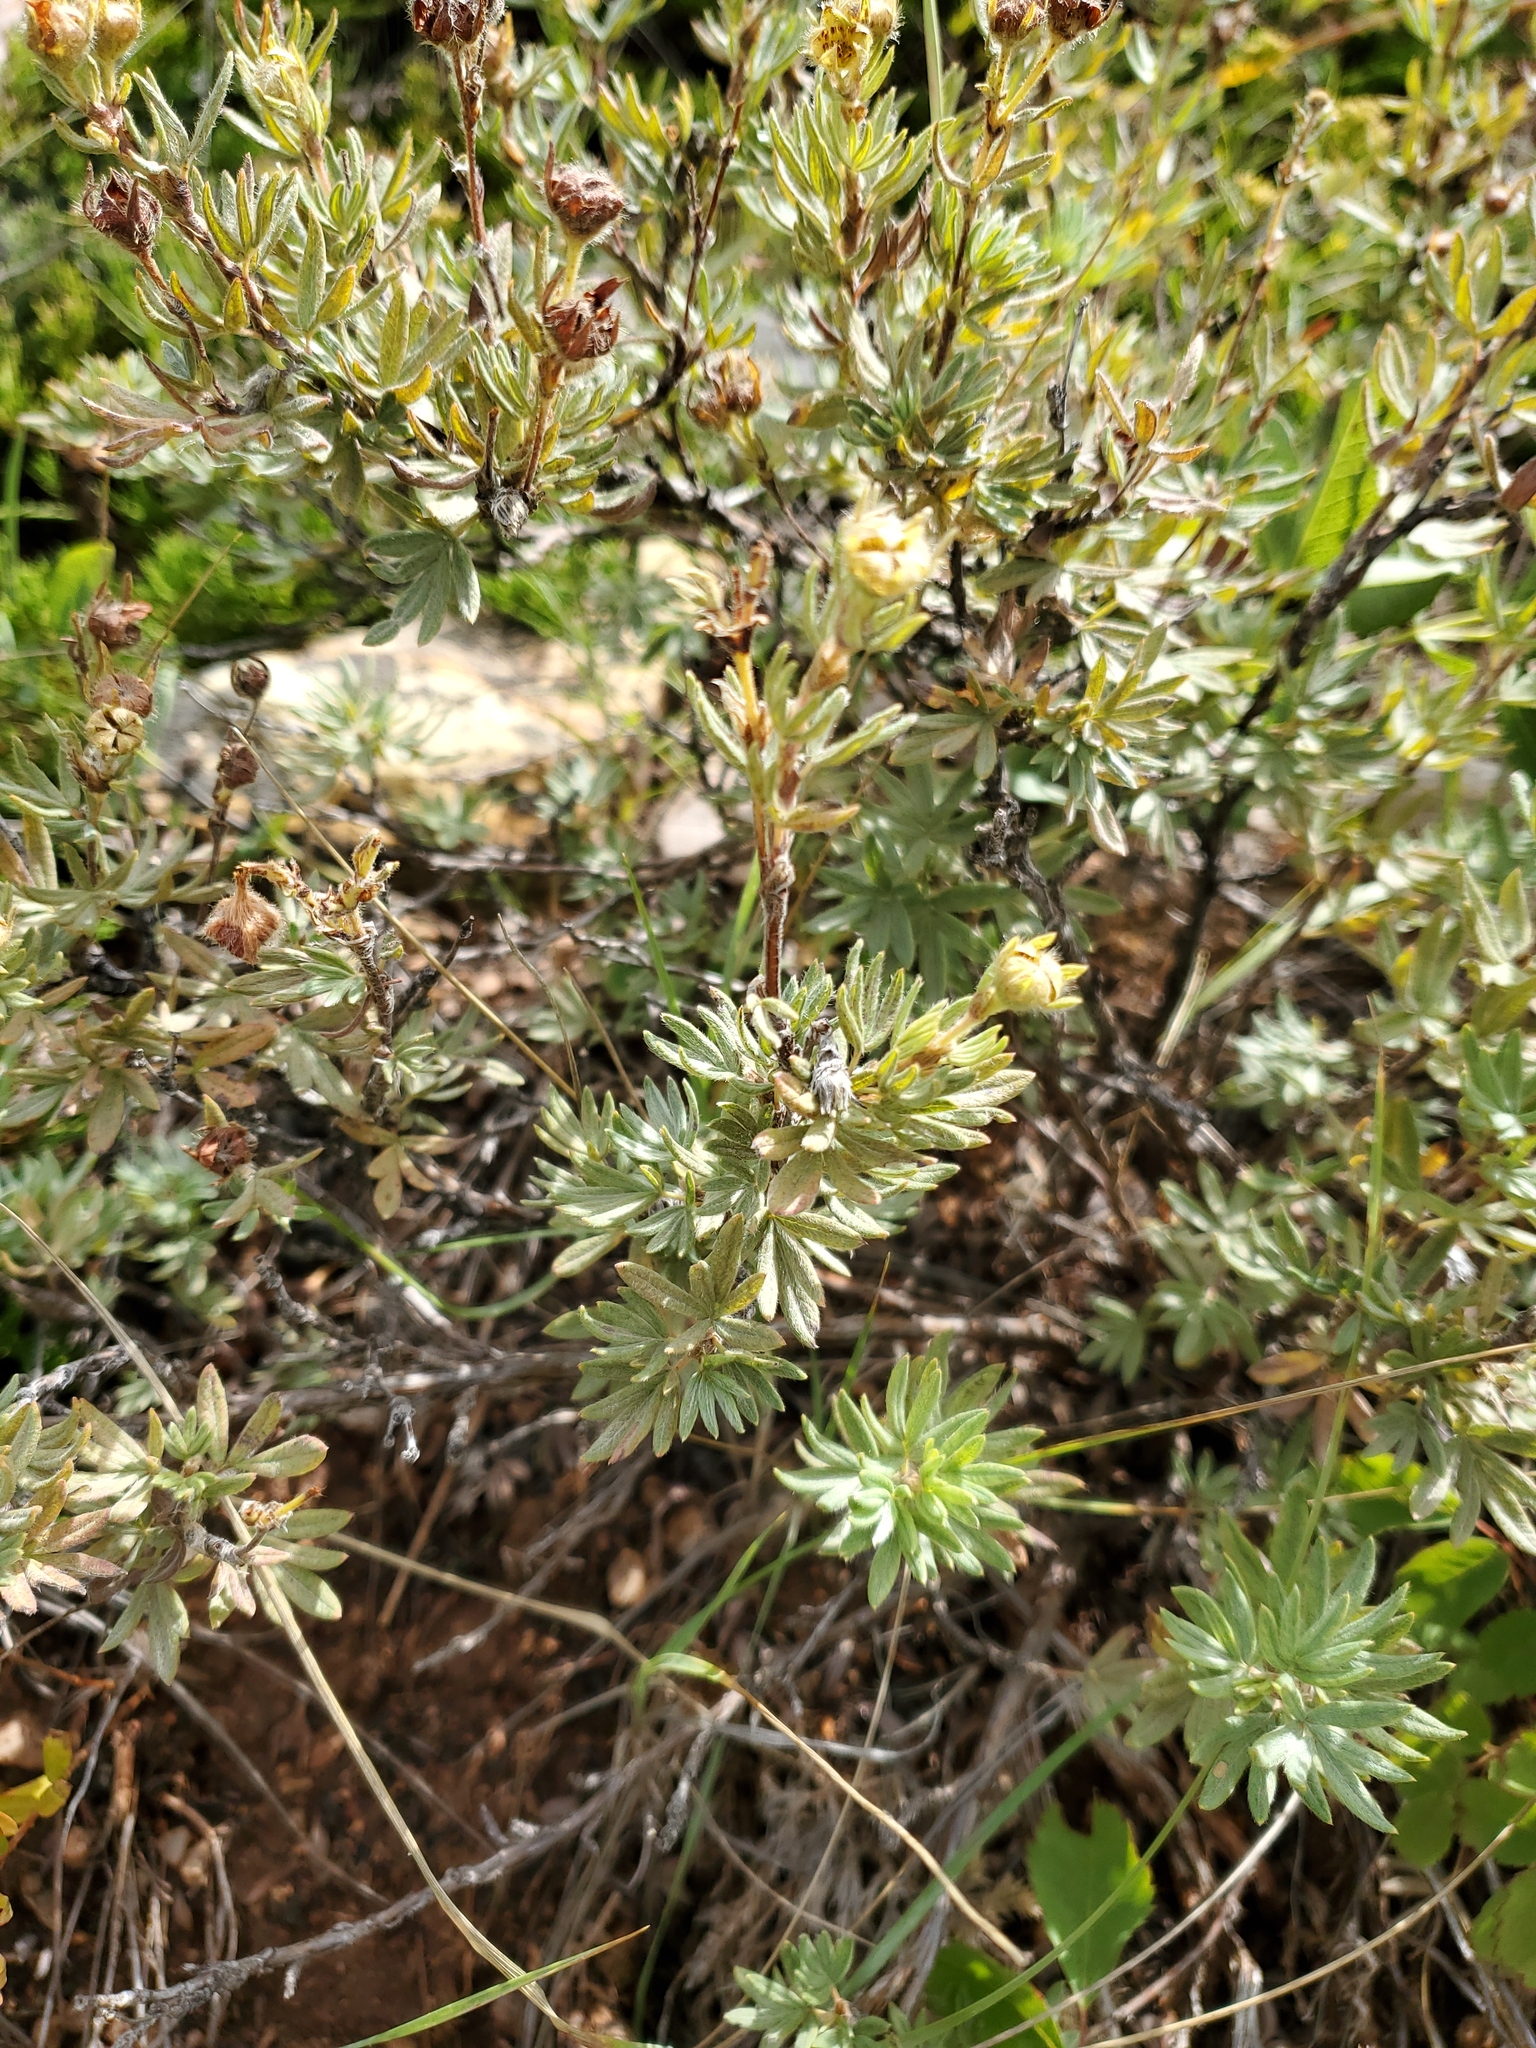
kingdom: Plantae
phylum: Tracheophyta
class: Magnoliopsida
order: Rosales
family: Rosaceae
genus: Dasiphora
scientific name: Dasiphora fruticosa
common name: Shrubby cinquefoil
